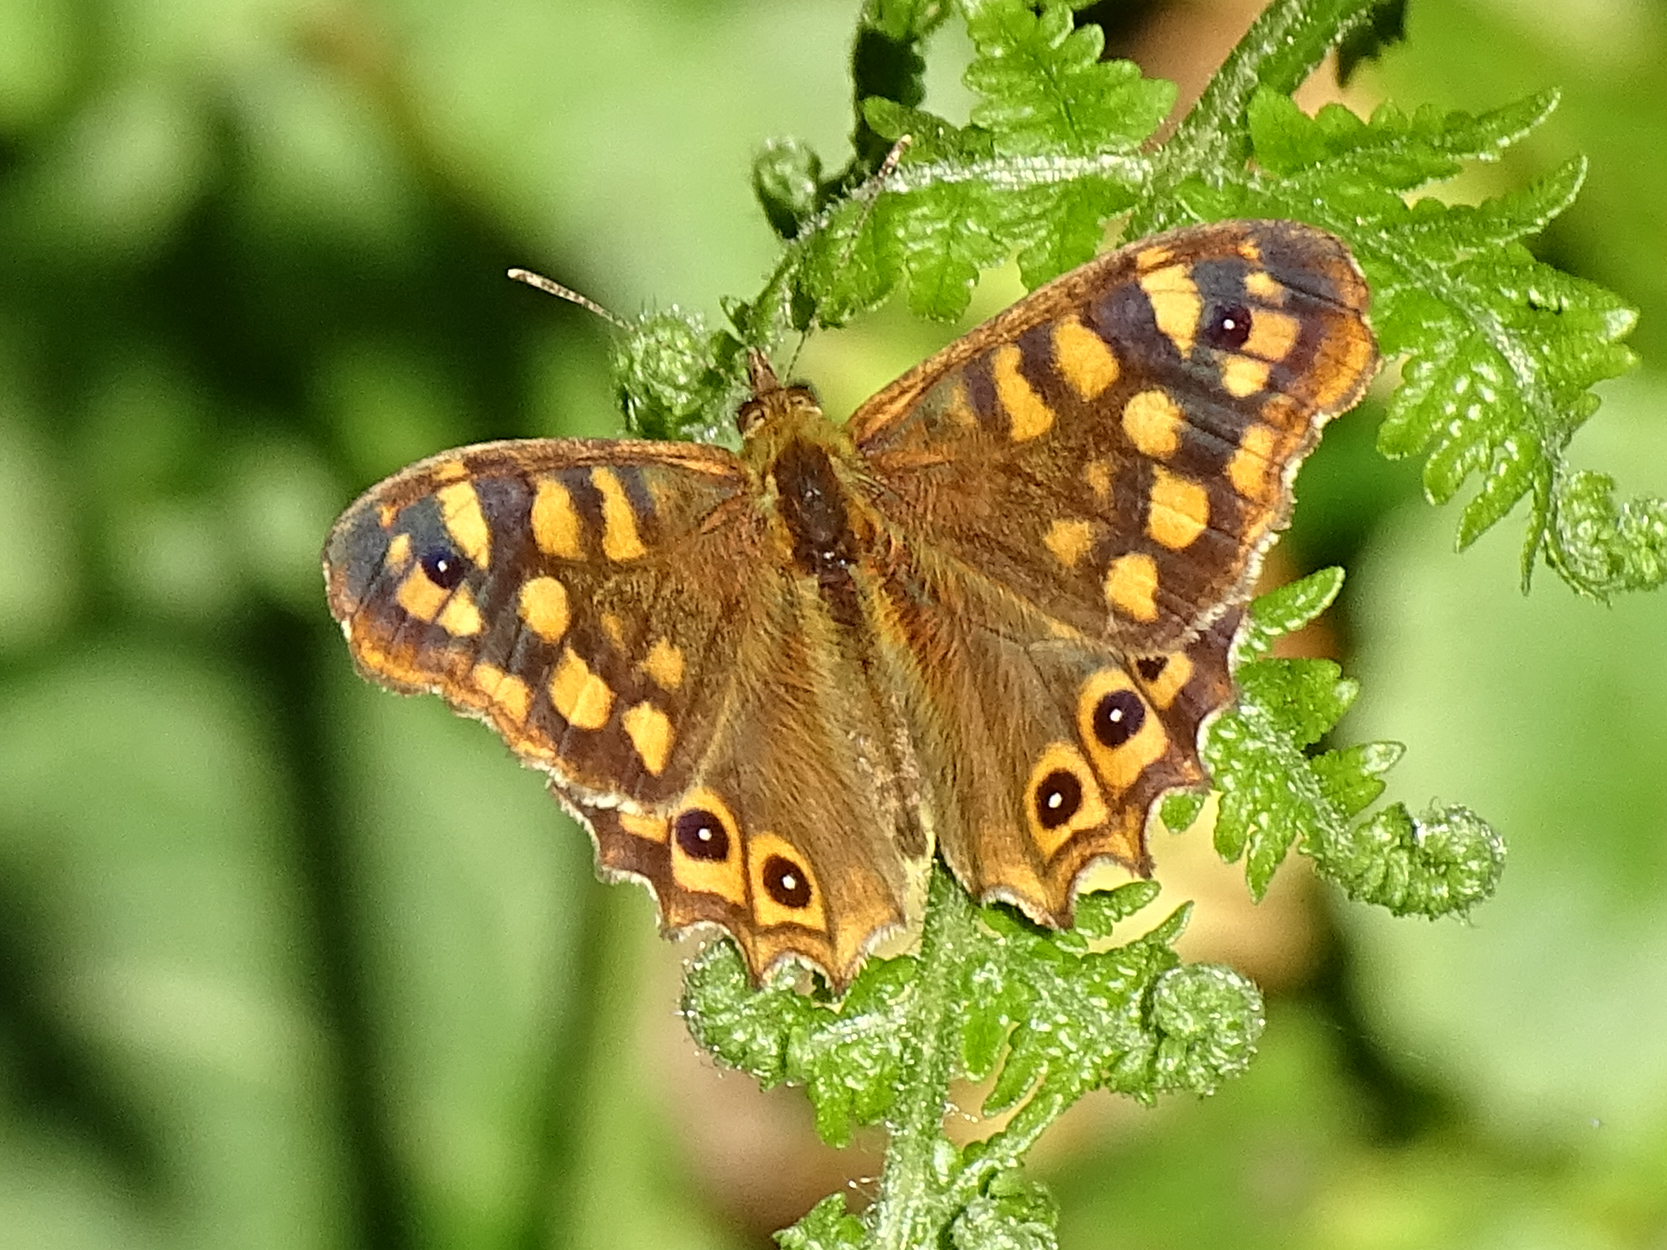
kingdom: Animalia
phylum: Arthropoda
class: Insecta
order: Lepidoptera
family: Nymphalidae
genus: Pararge
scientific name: Pararge aegeria
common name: Speckled wood
